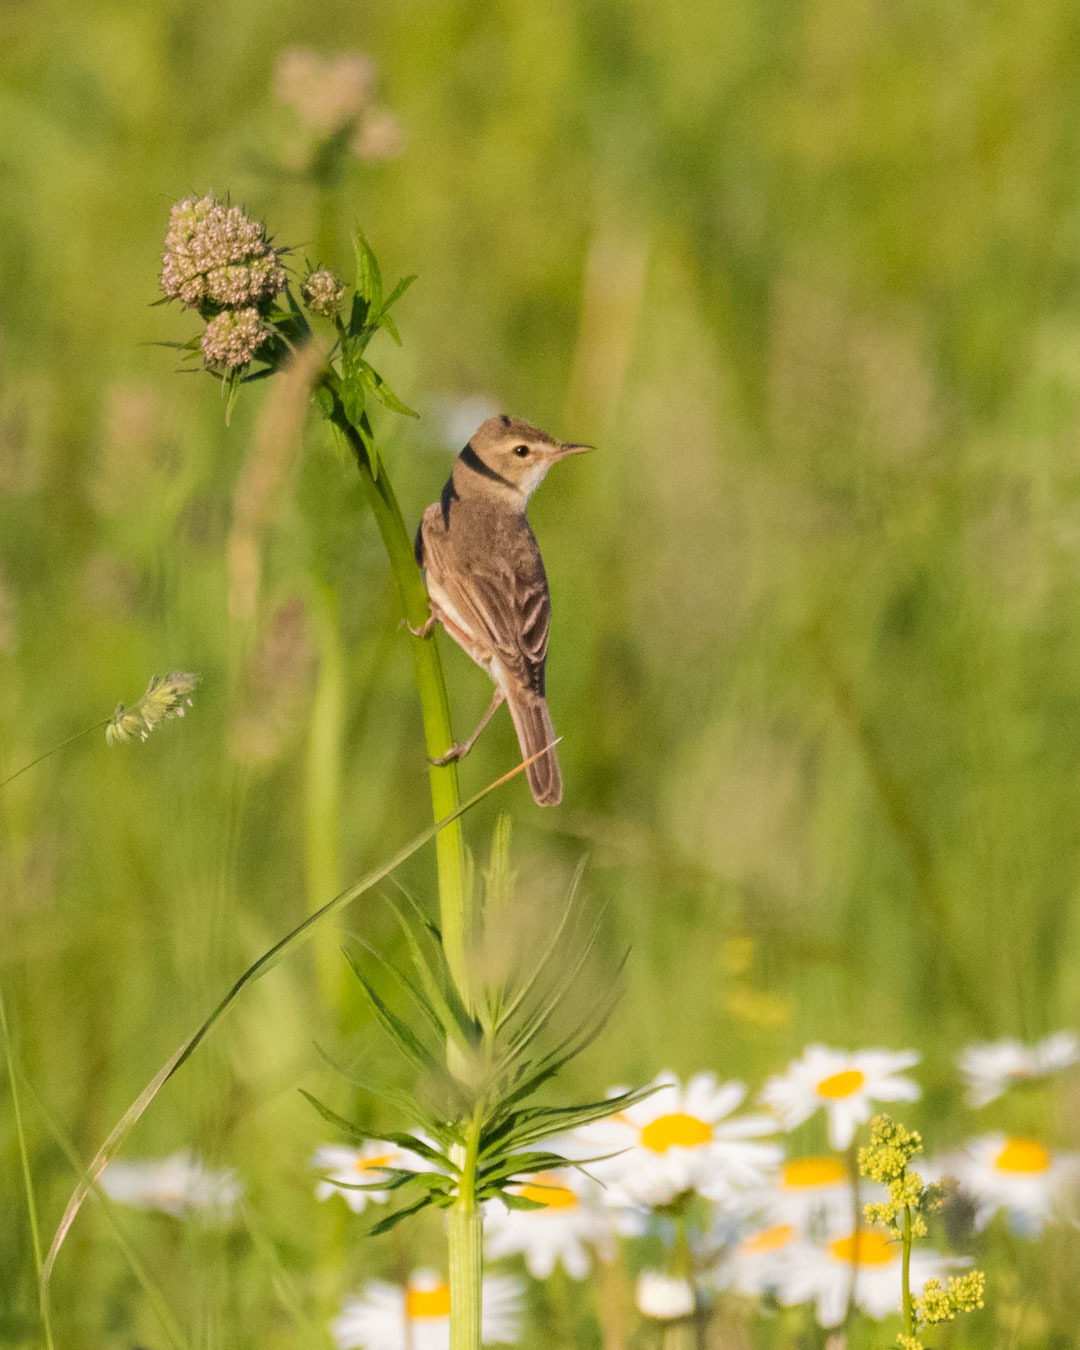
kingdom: Animalia
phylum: Chordata
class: Aves
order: Passeriformes
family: Acrocephalidae
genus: Iduna
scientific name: Iduna caligata
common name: Booted warbler
